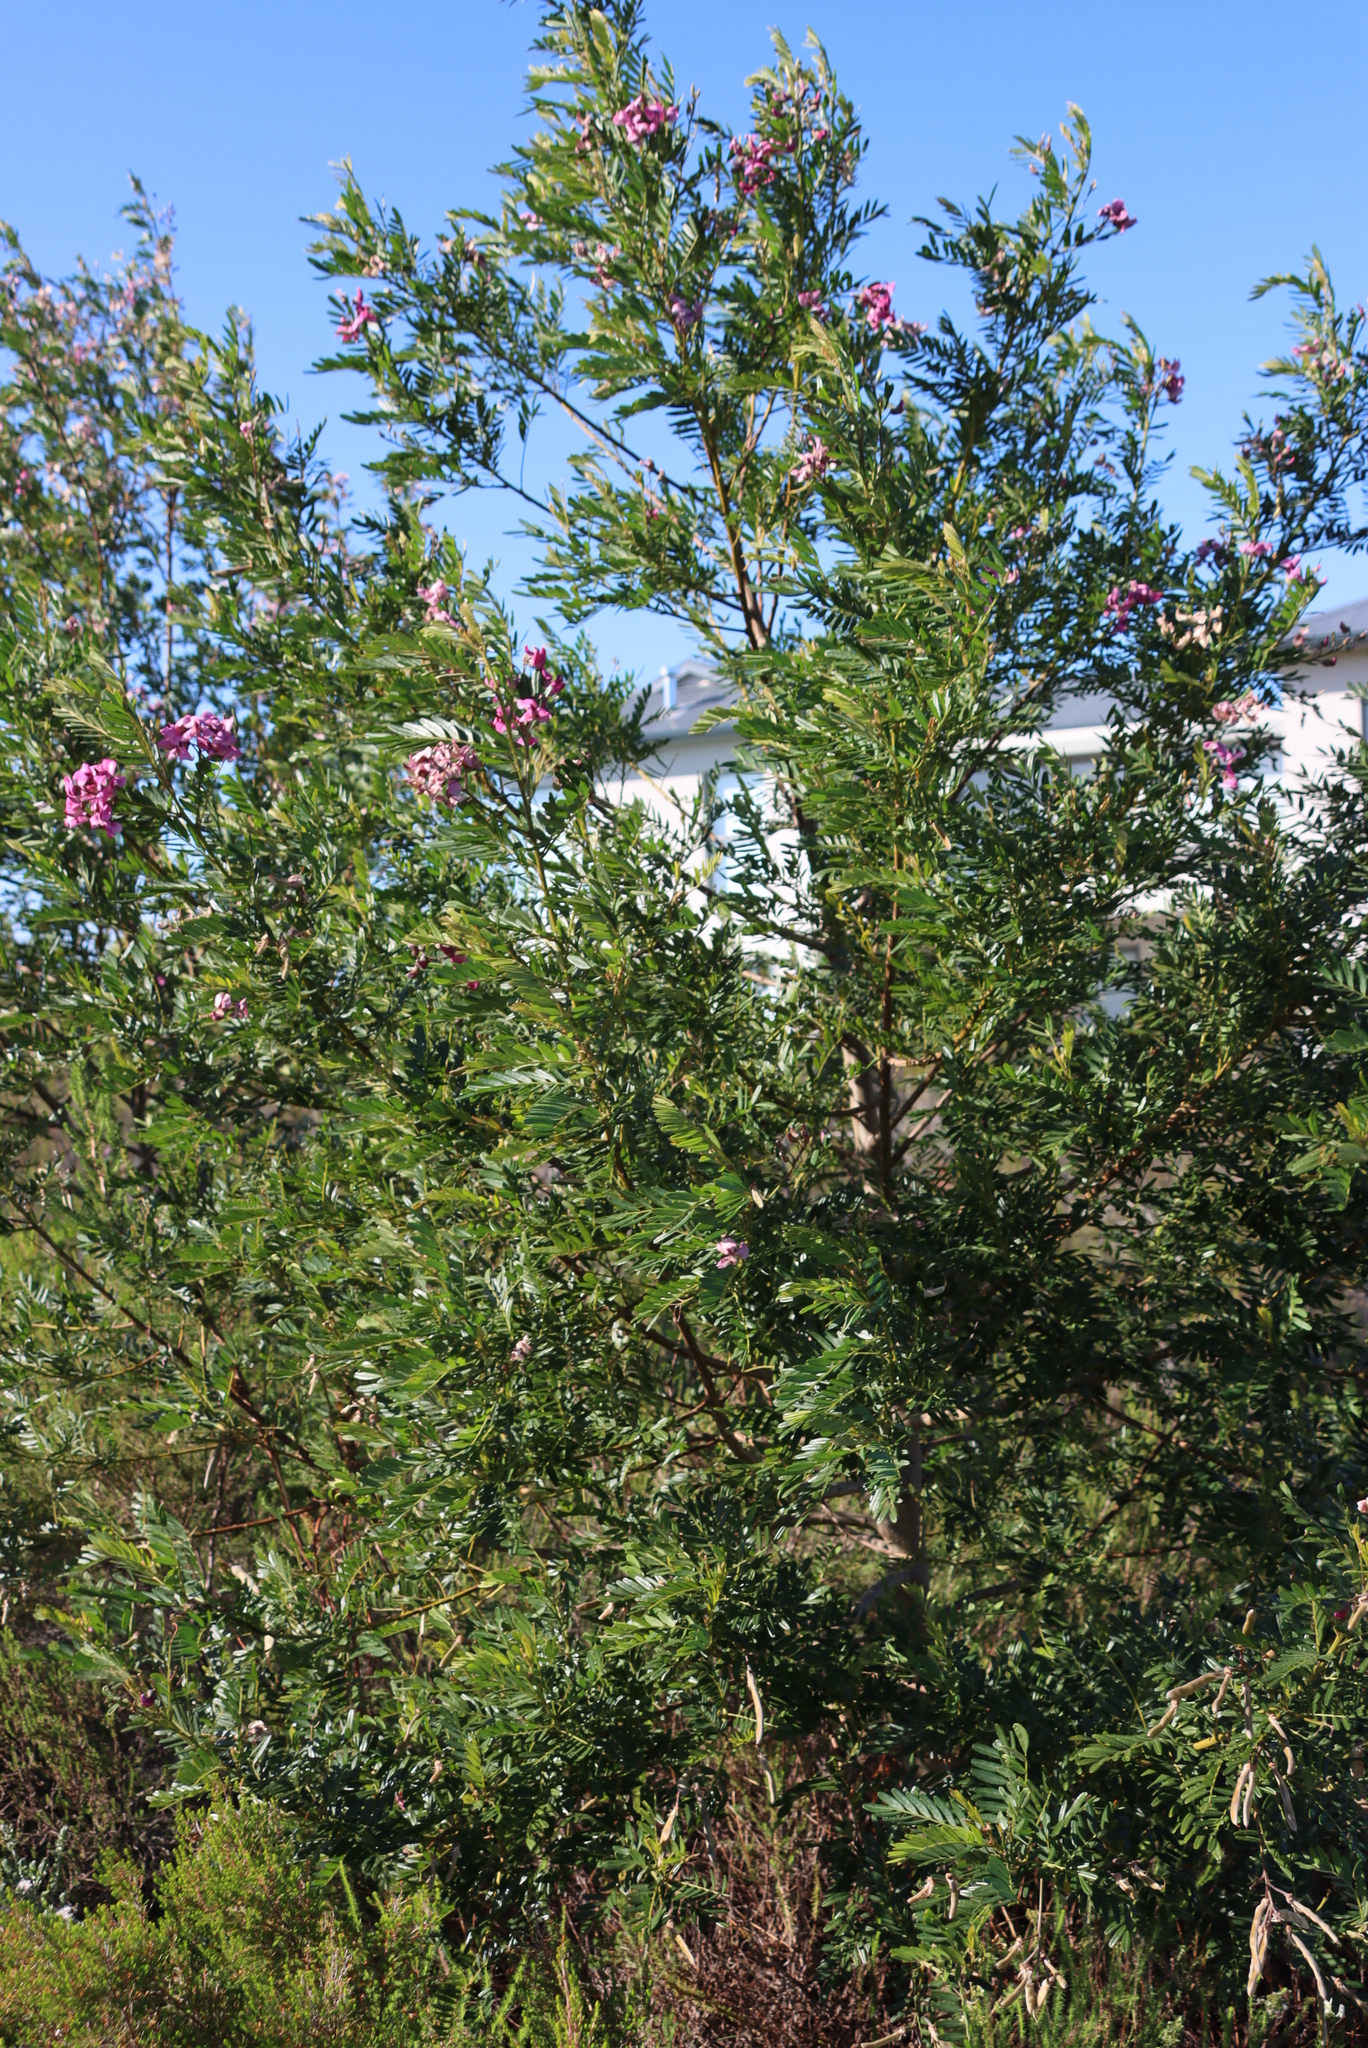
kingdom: Plantae
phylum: Tracheophyta
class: Magnoliopsida
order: Fabales
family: Fabaceae
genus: Virgilia
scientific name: Virgilia divaricata
